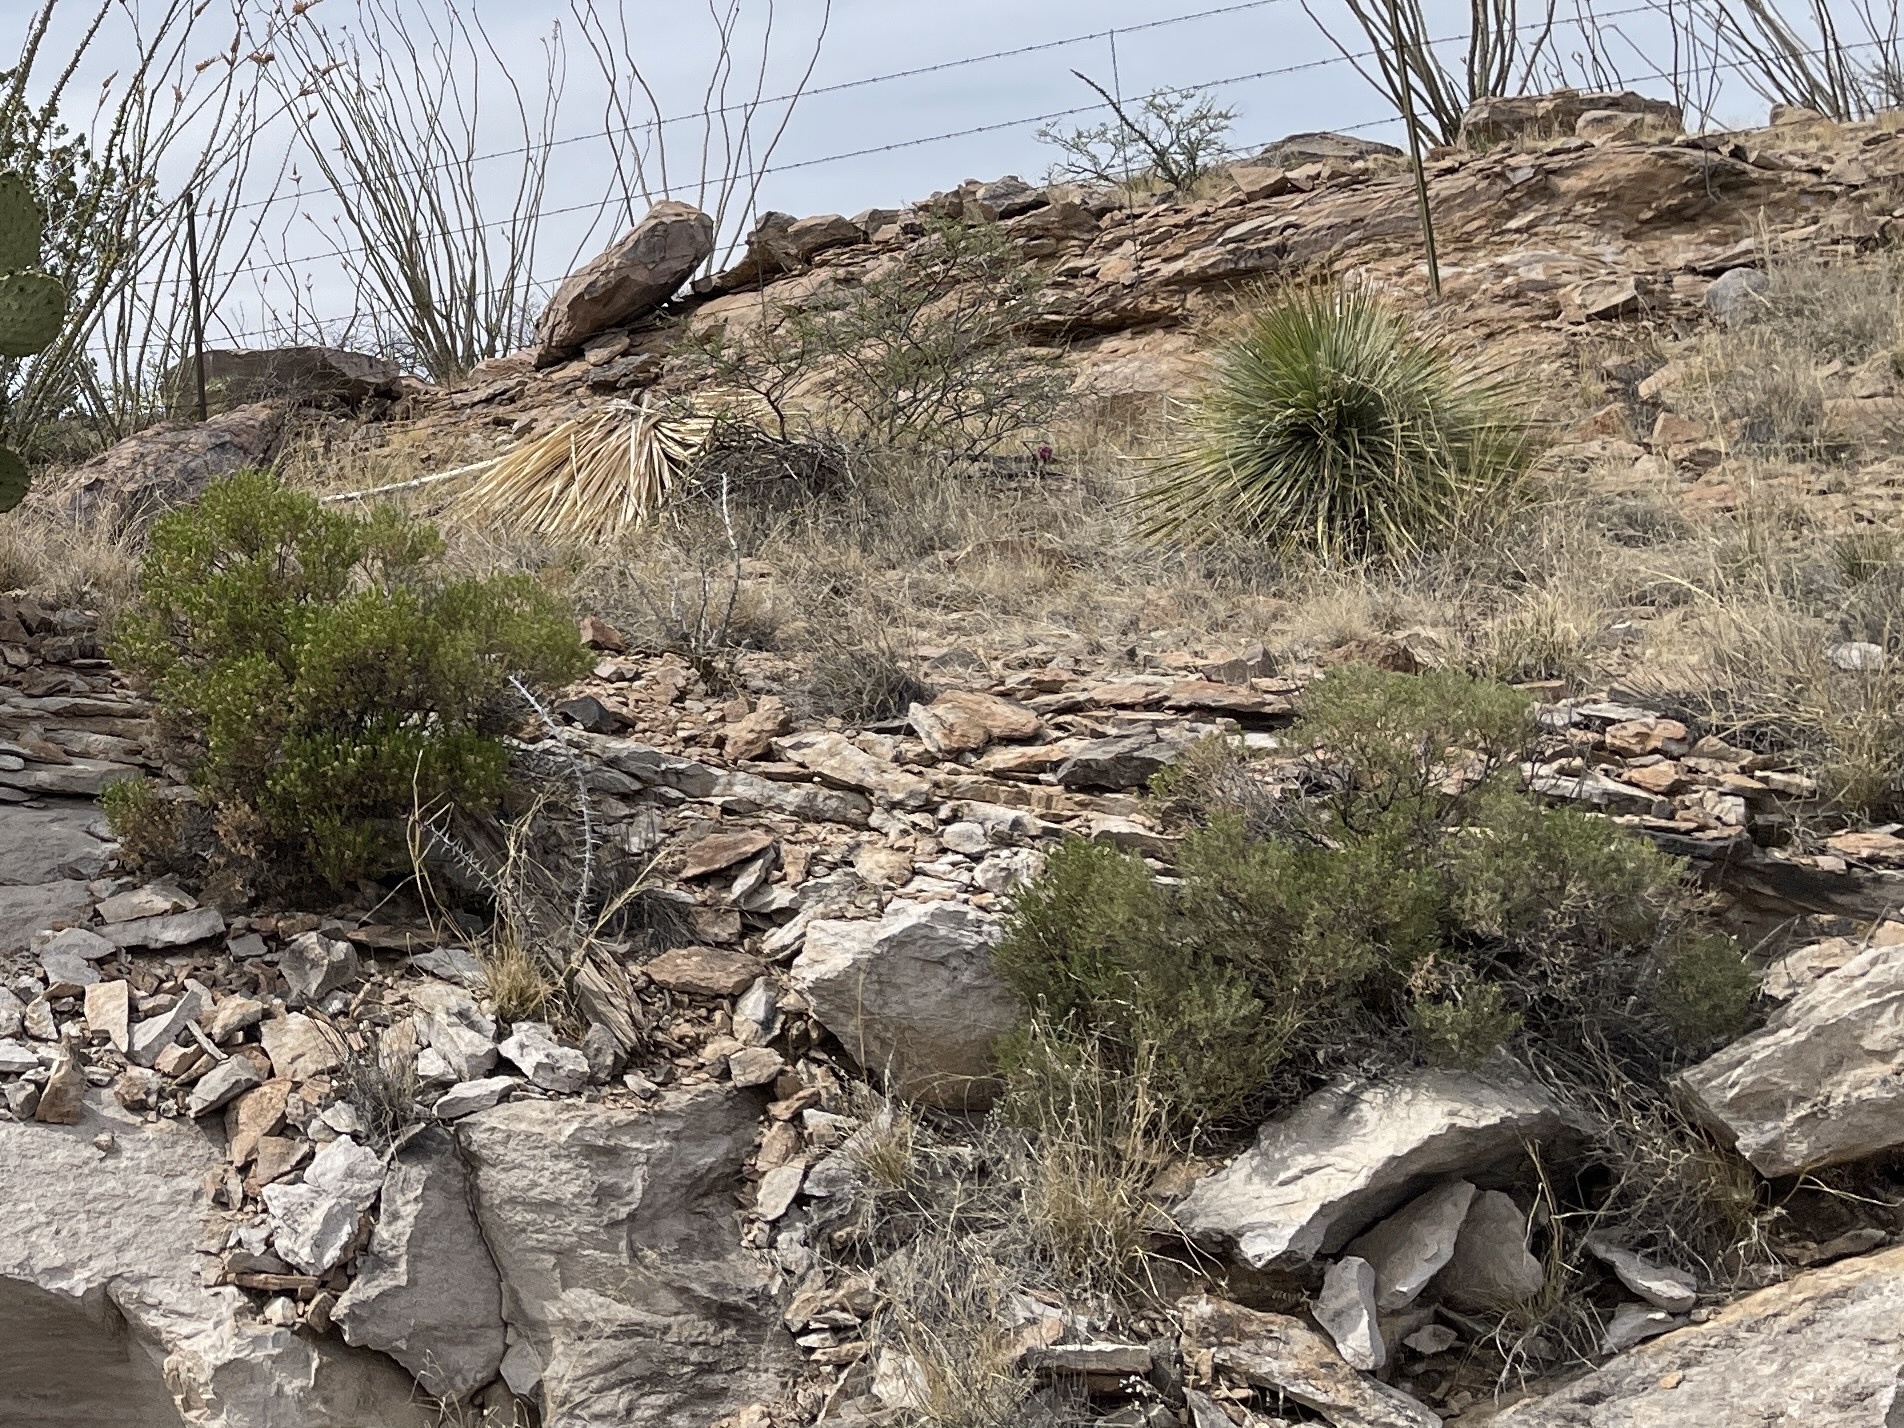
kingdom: Plantae
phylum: Tracheophyta
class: Magnoliopsida
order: Asterales
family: Asteraceae
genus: Ericameria
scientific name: Ericameria laricifolia
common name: Turpentine-bush
